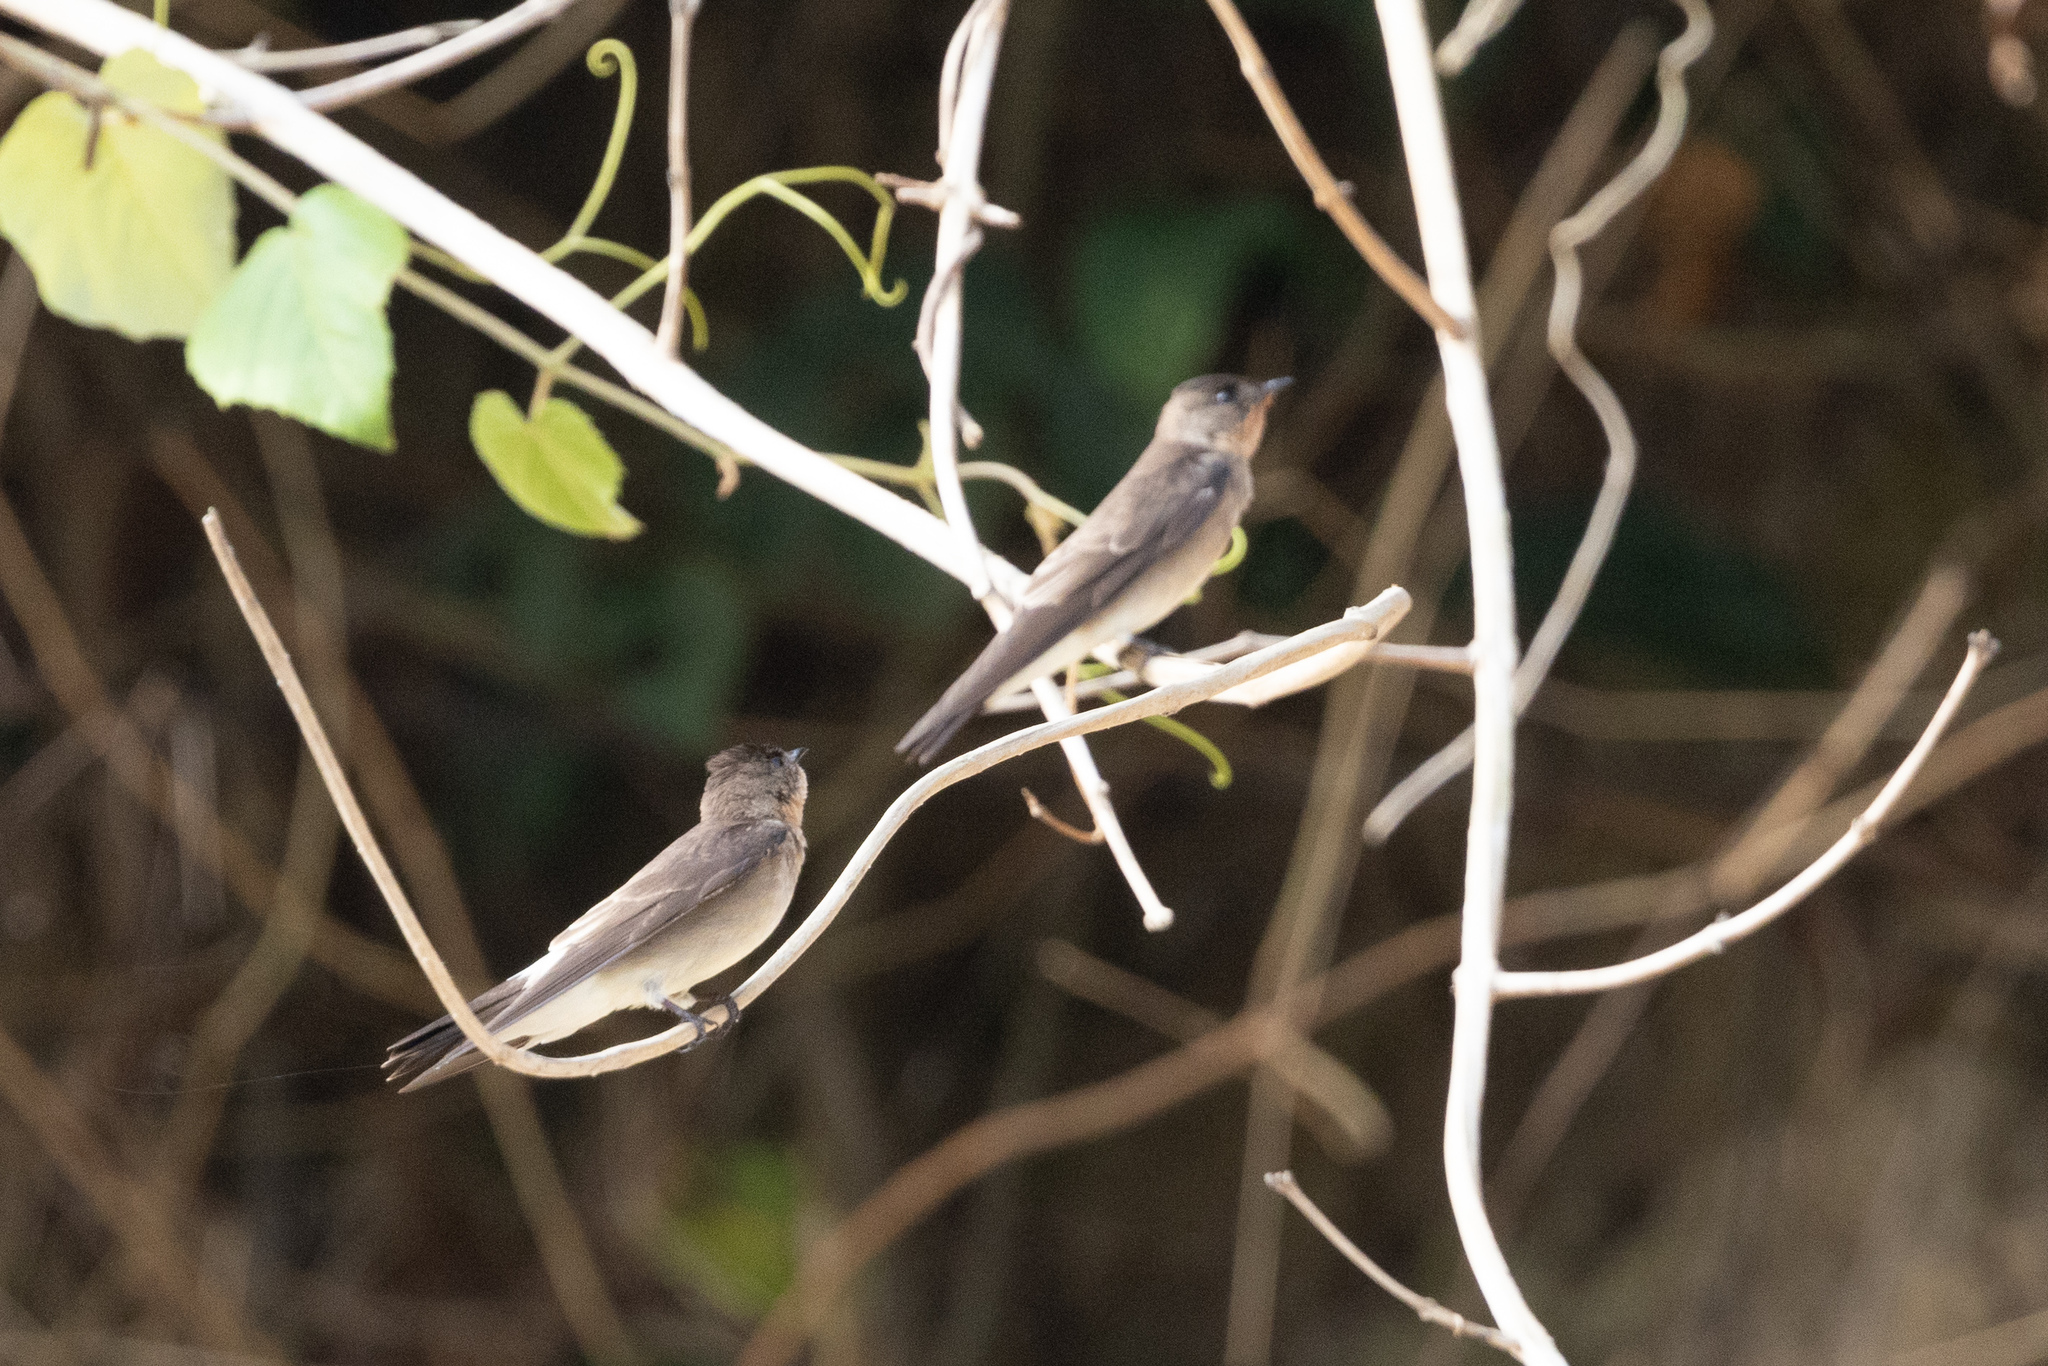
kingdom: Animalia
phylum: Chordata
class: Aves
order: Passeriformes
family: Hirundinidae
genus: Stelgidopteryx
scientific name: Stelgidopteryx ruficollis
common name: Southern rough-winged swallow
